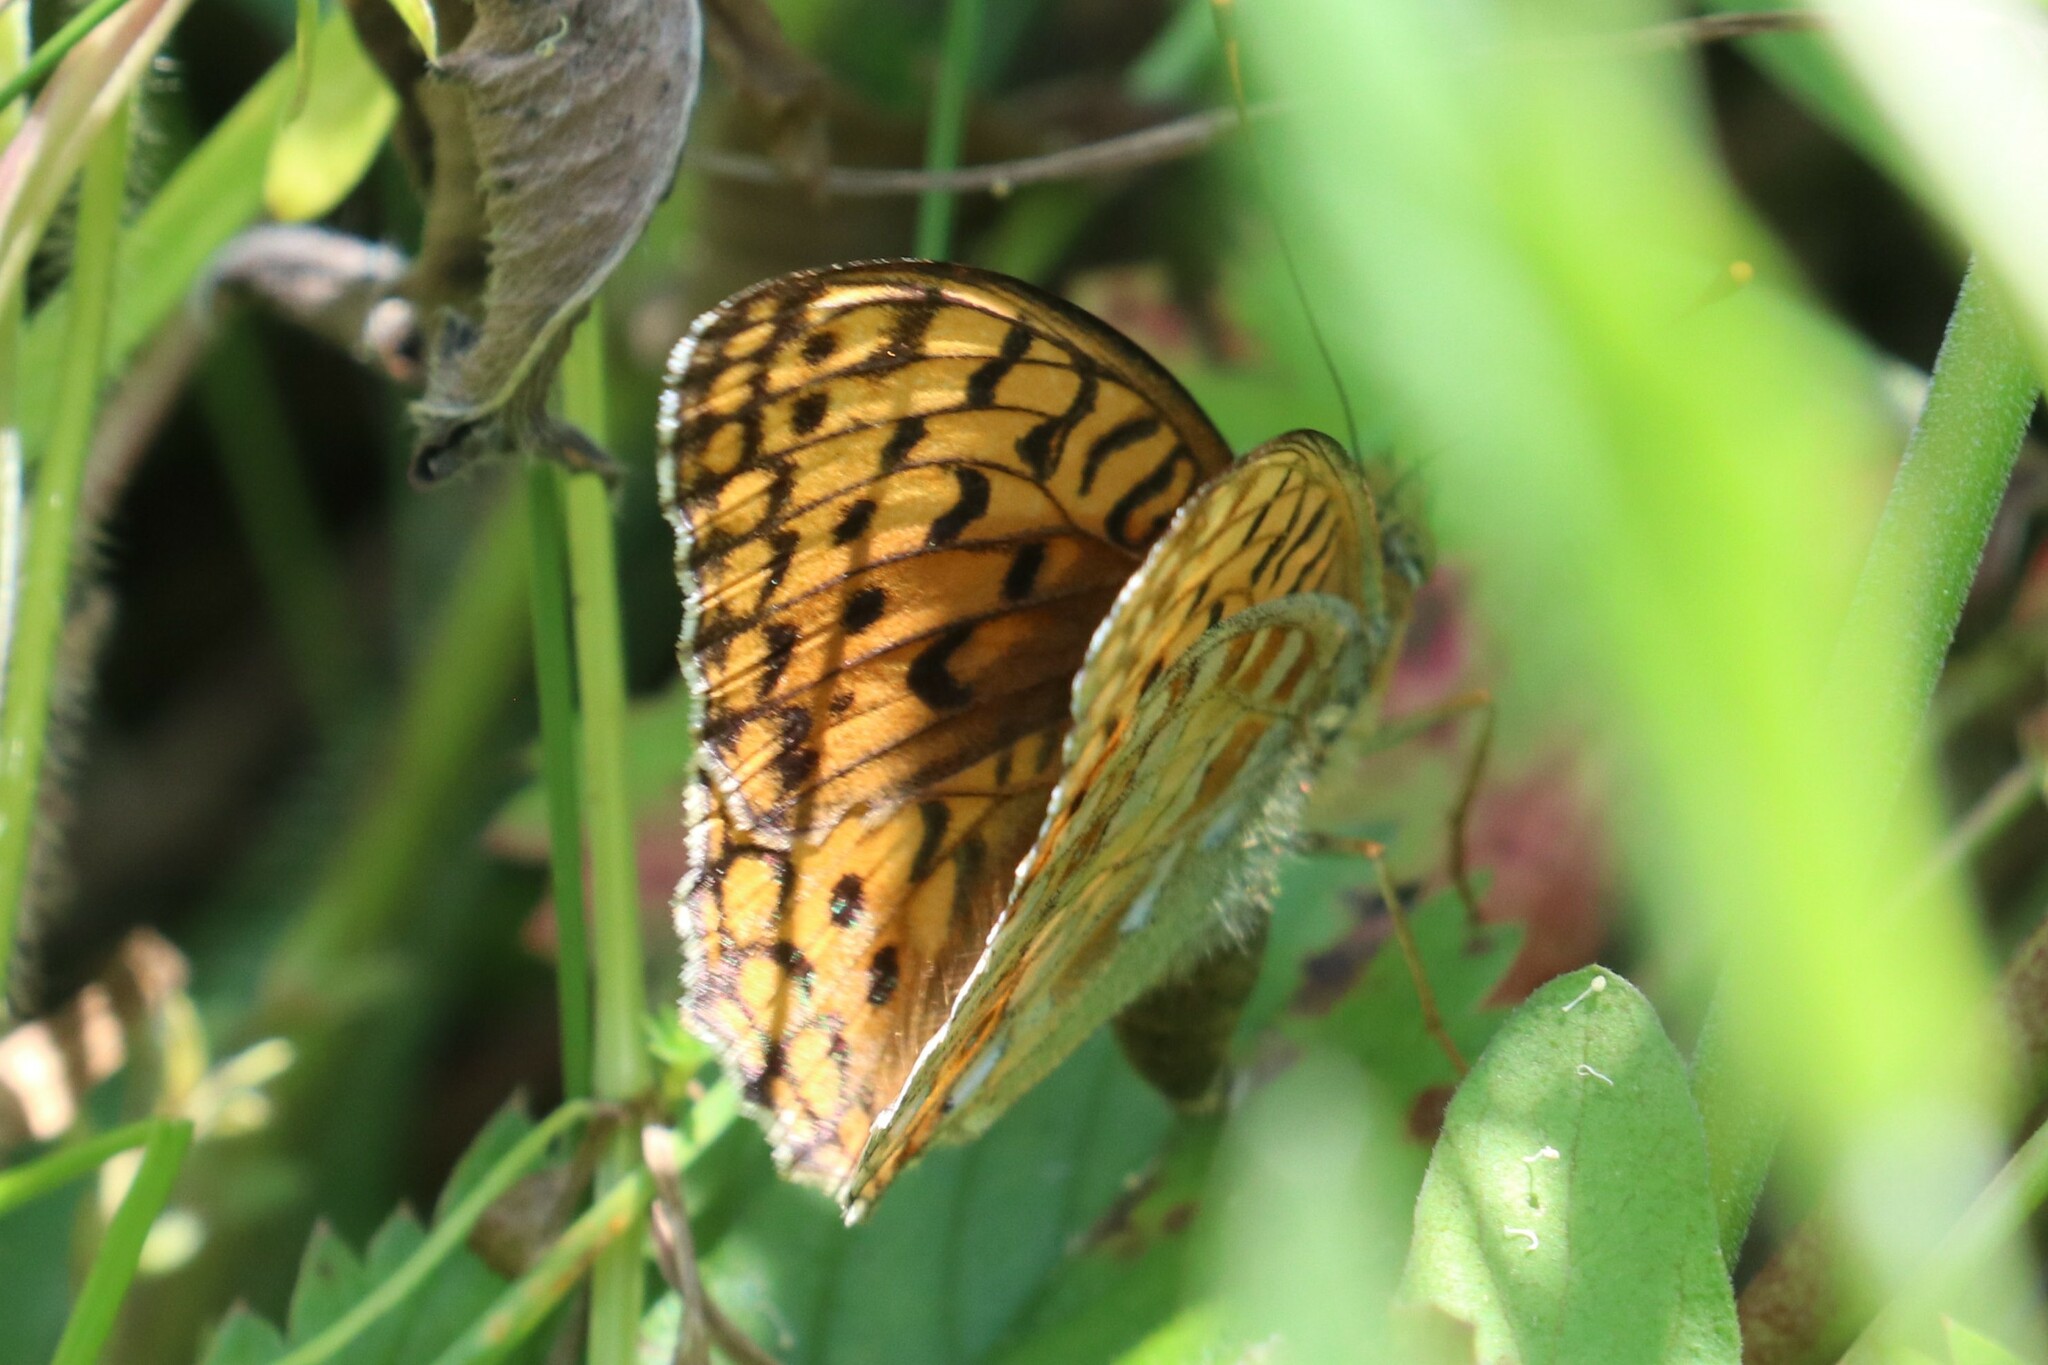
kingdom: Animalia
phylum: Arthropoda
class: Insecta
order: Lepidoptera
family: Nymphalidae
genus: Fabriciana
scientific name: Fabriciana adippe
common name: High brown fritillary
